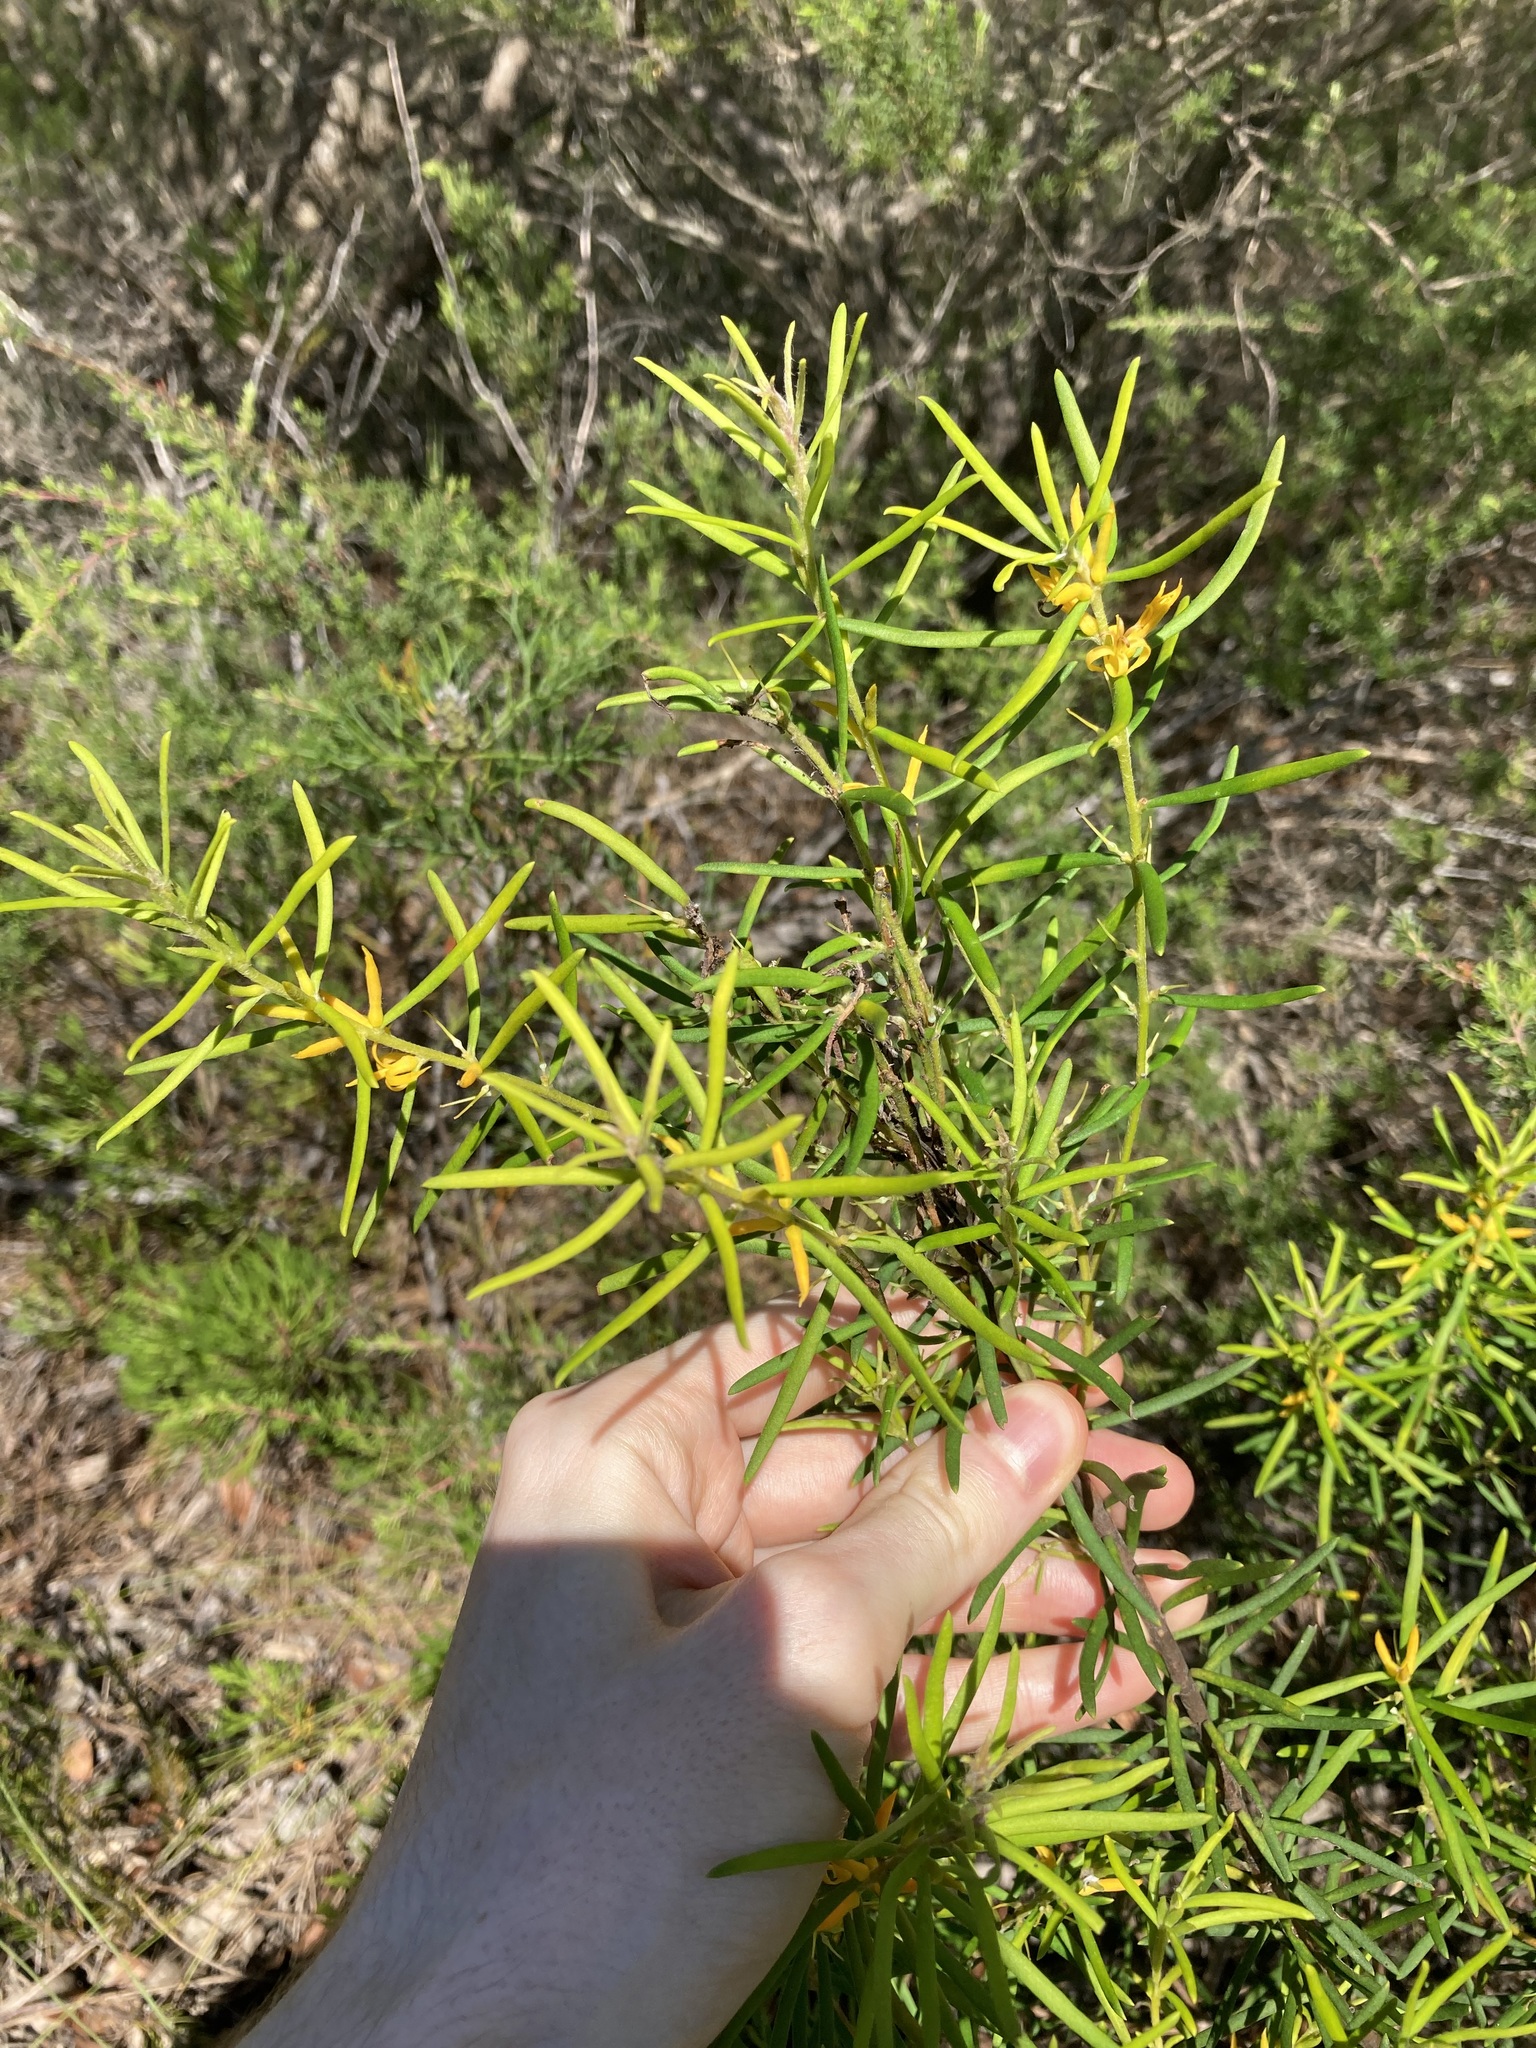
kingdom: Plantae
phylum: Tracheophyta
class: Magnoliopsida
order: Proteales
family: Proteaceae
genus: Persoonia
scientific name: Persoonia mollis
